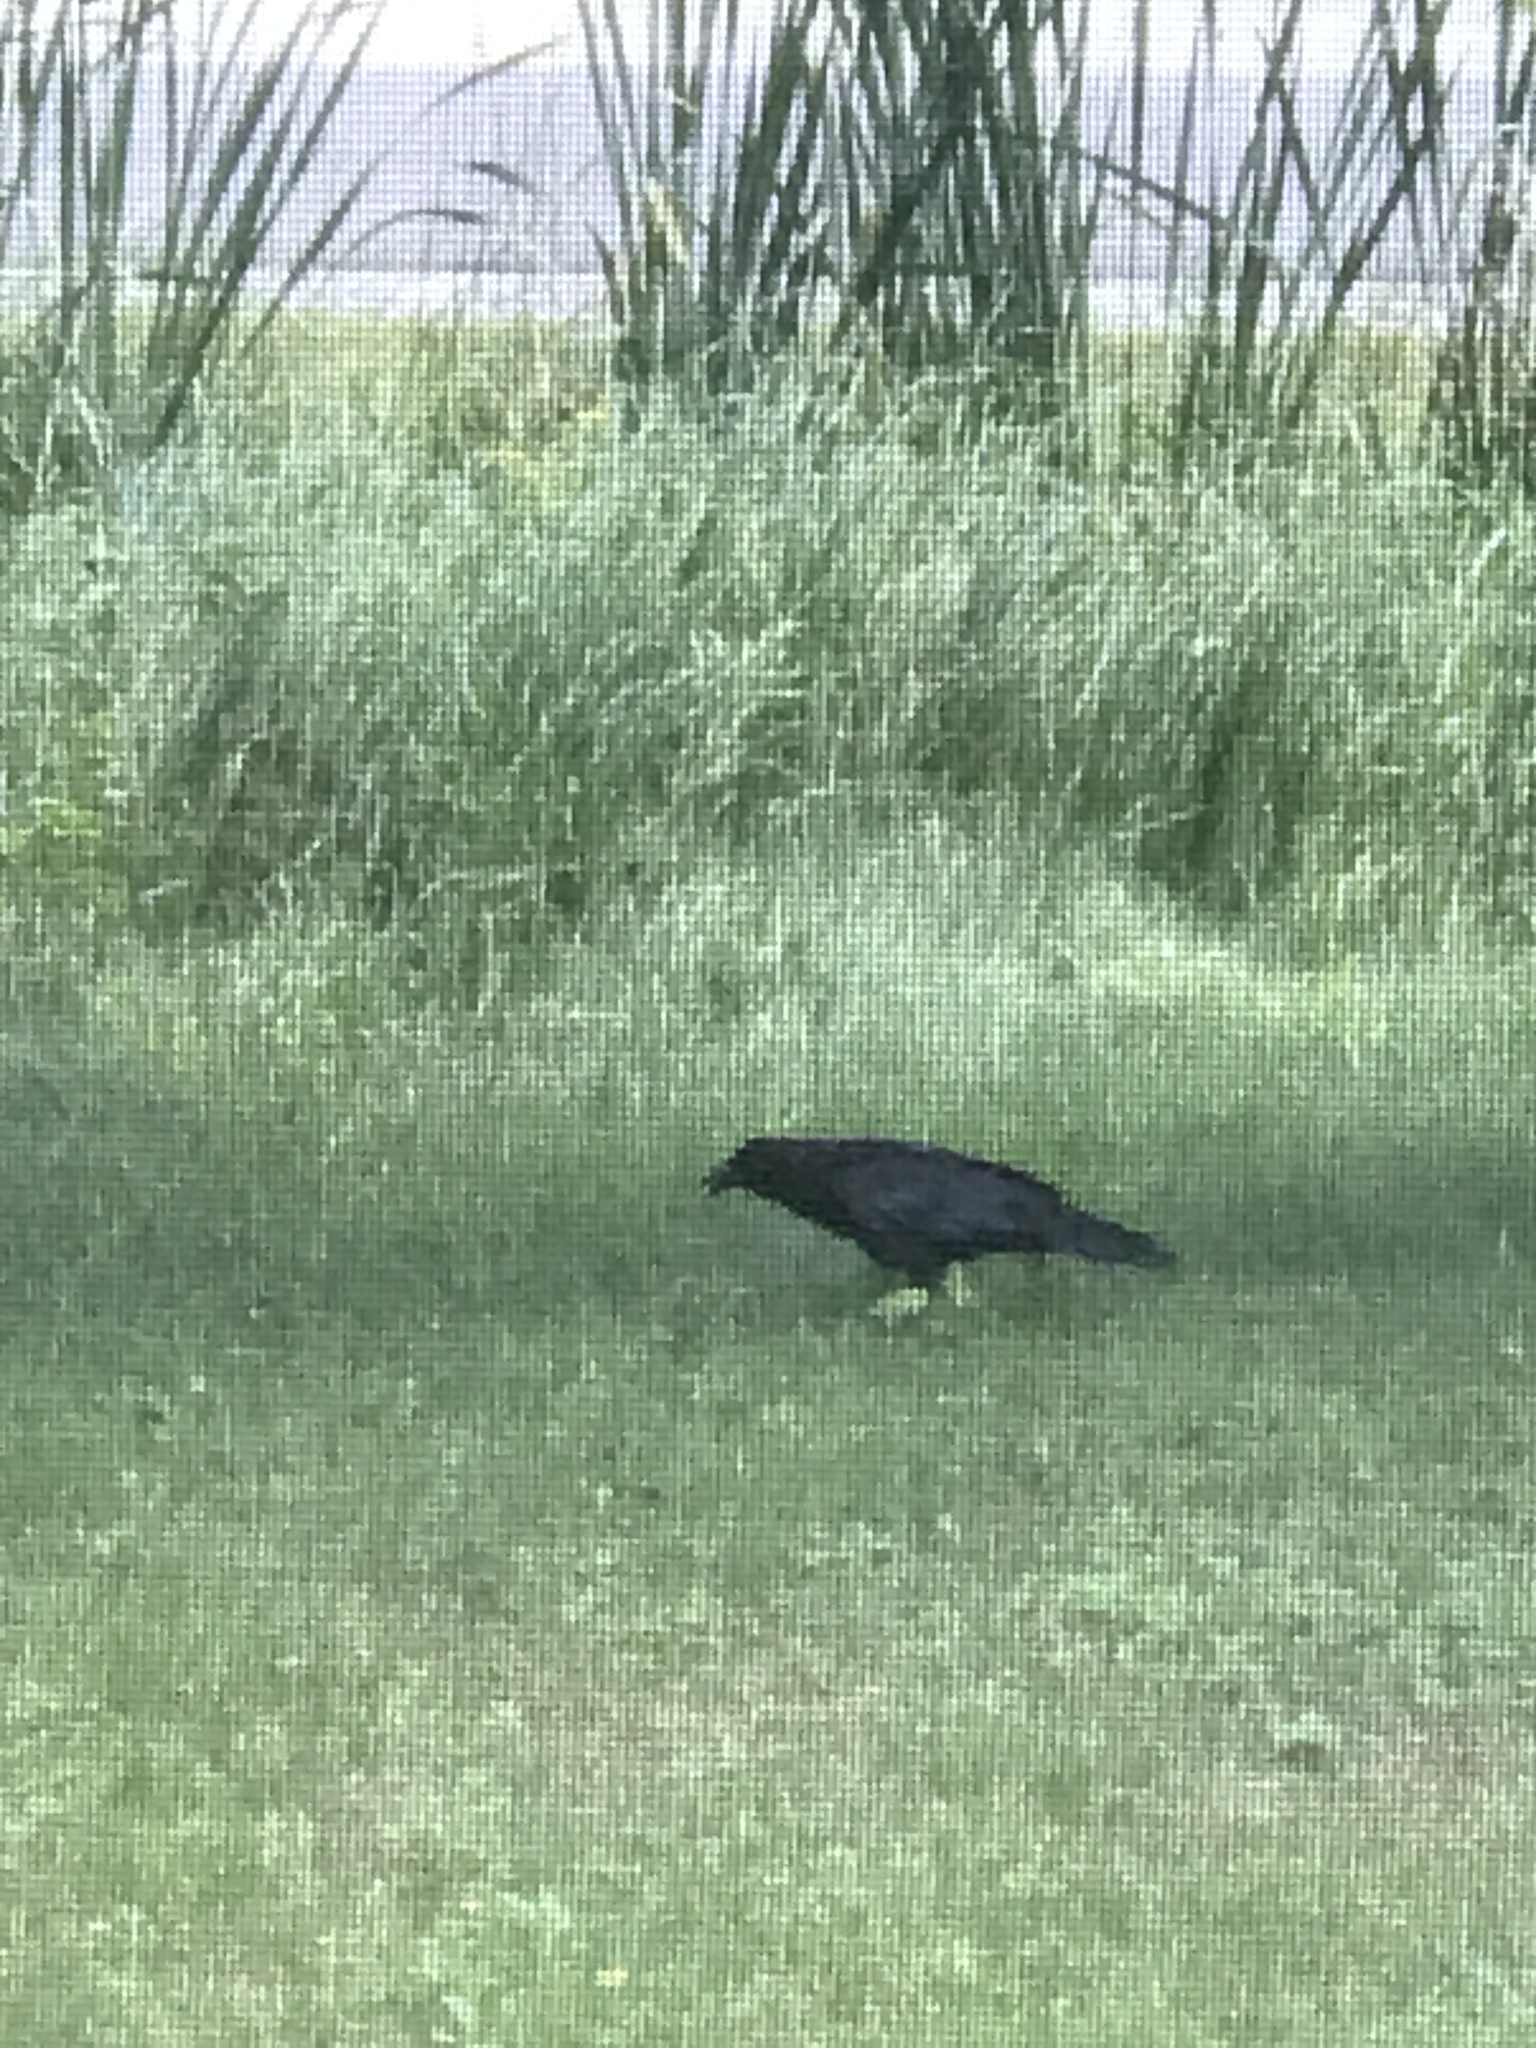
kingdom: Animalia
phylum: Chordata
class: Aves
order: Passeriformes
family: Corvidae
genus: Corvus
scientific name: Corvus brachyrhynchos
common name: American crow
